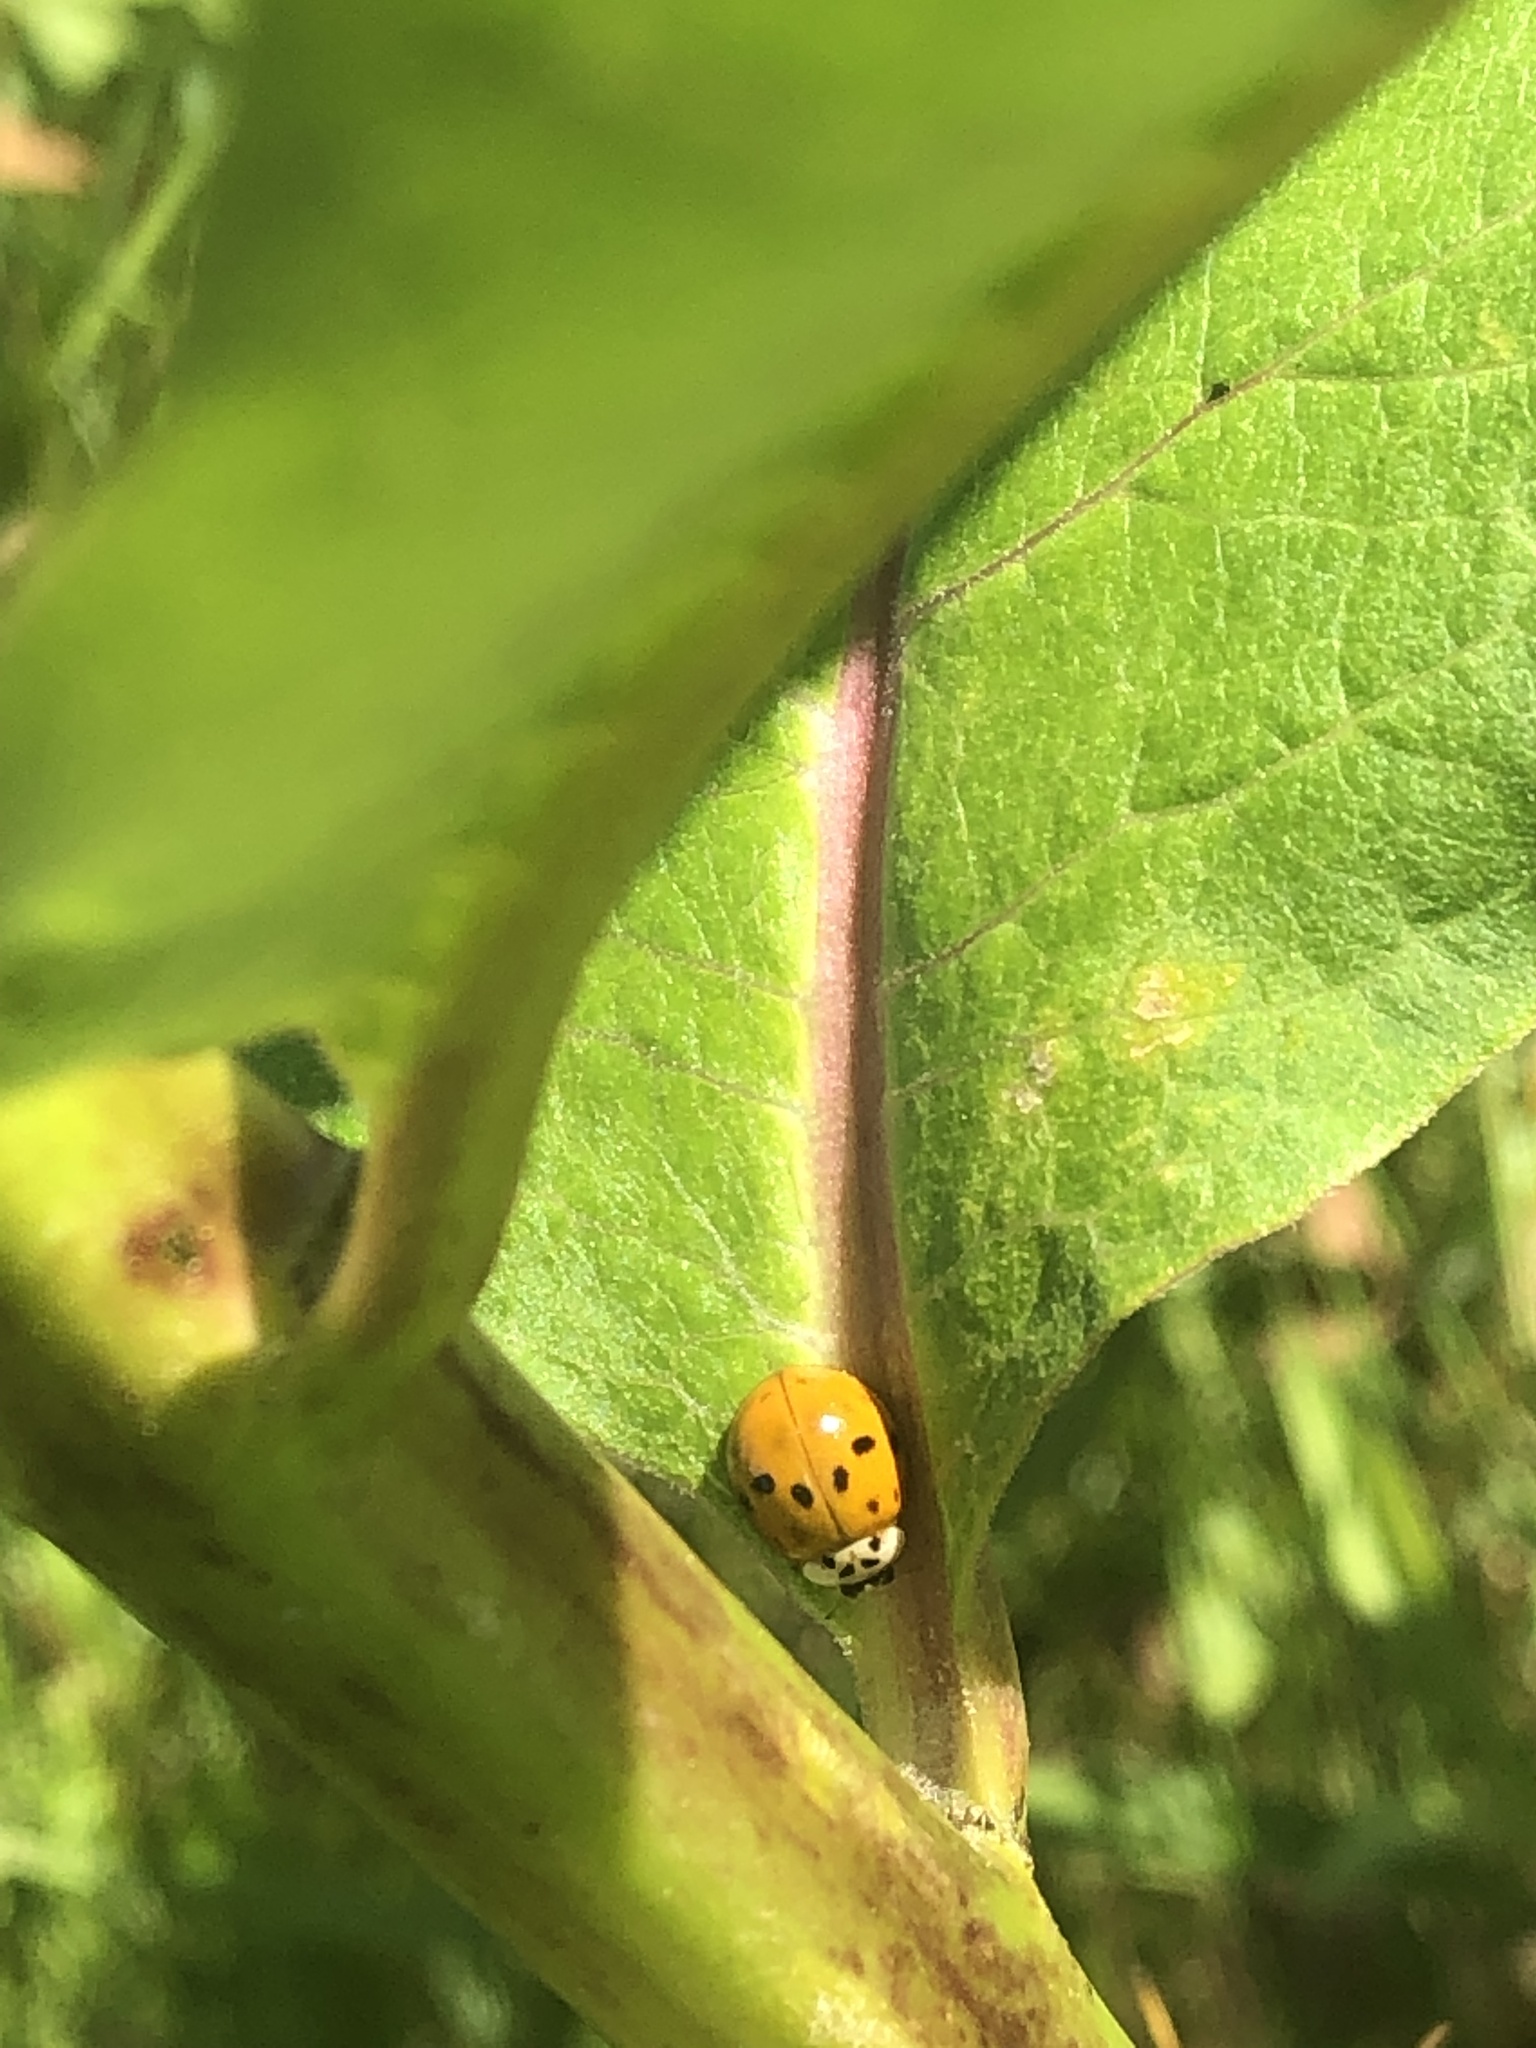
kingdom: Animalia
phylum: Arthropoda
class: Insecta
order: Coleoptera
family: Coccinellidae
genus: Harmonia
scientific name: Harmonia axyridis
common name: Harlequin ladybird
